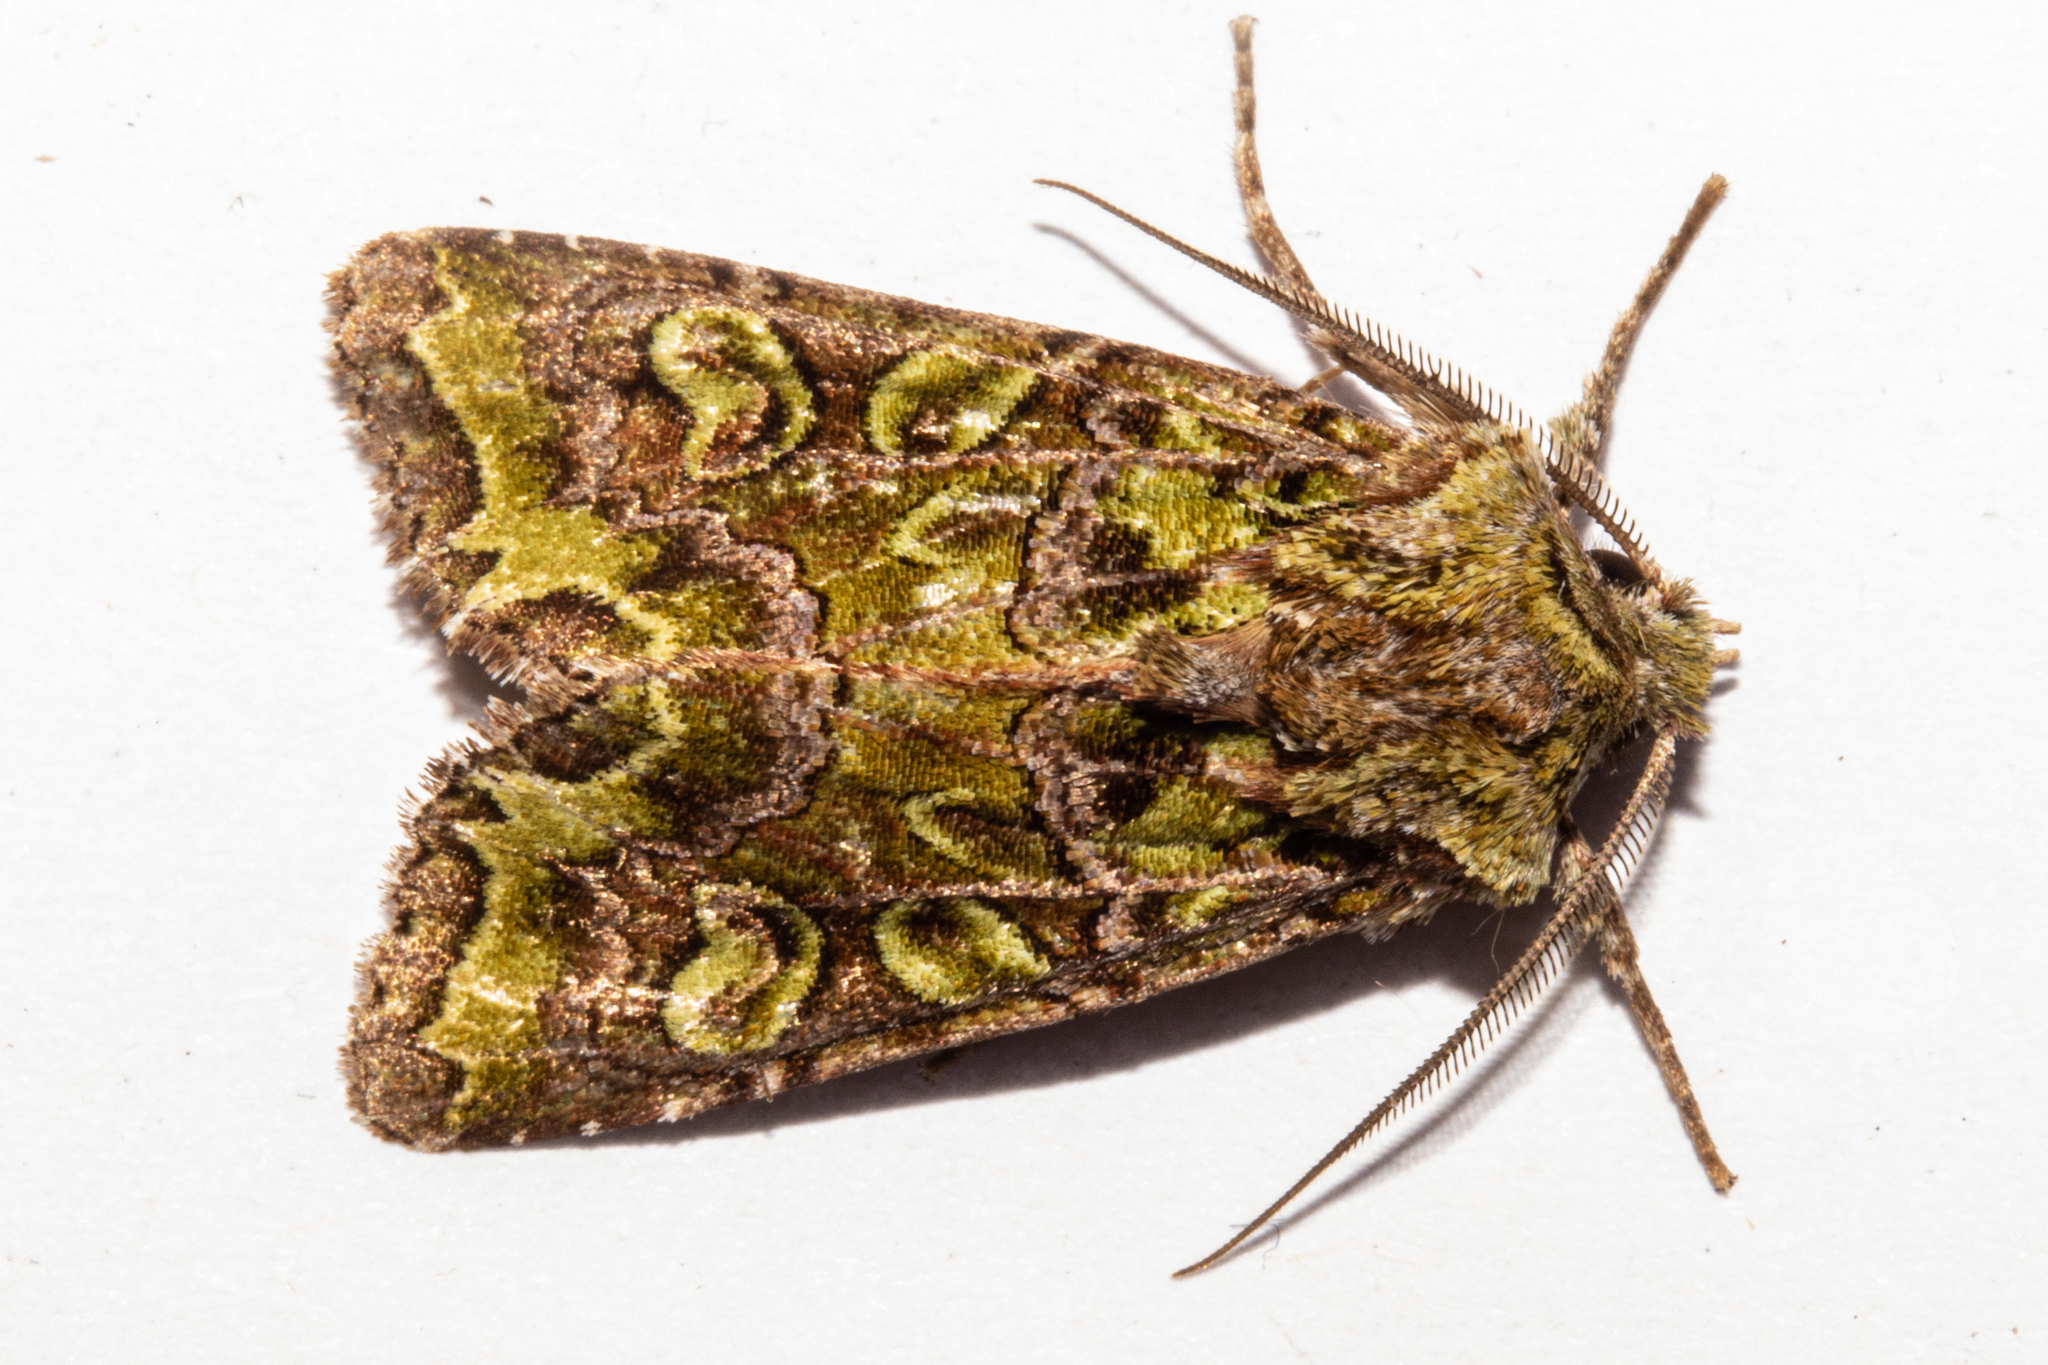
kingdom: Animalia
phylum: Arthropoda
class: Insecta
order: Lepidoptera
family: Noctuidae
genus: Ichneutica
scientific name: Ichneutica chlorodonta
